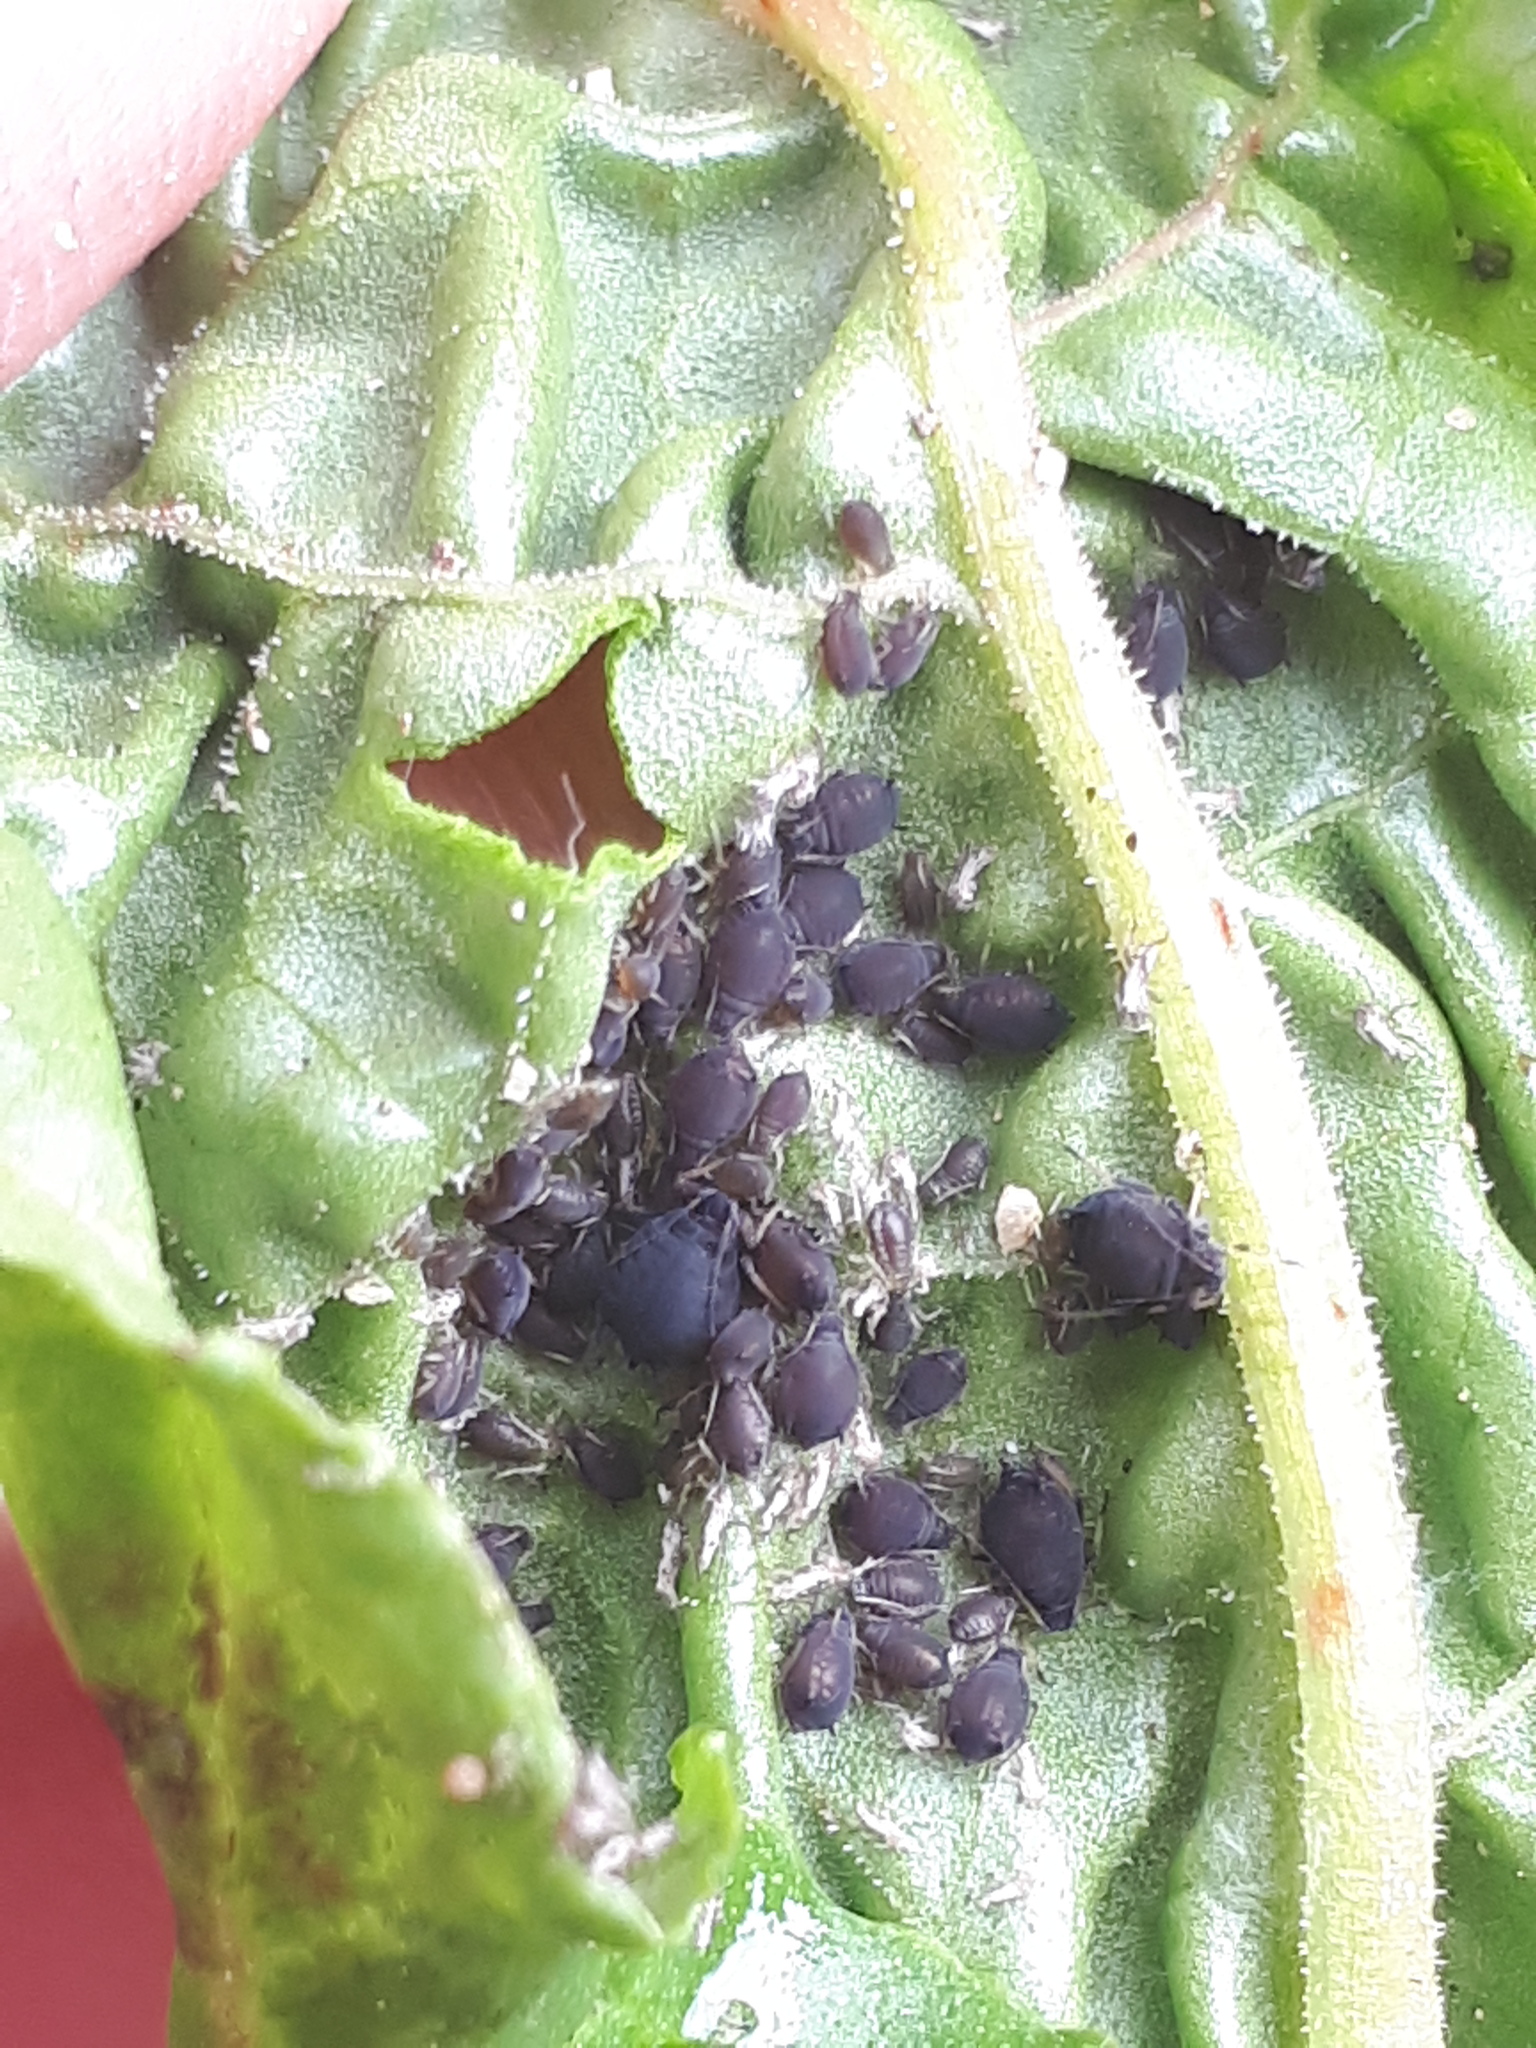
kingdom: Animalia
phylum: Arthropoda
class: Insecta
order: Hemiptera
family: Aphididae
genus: Aphis
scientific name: Aphis rumicis
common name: Aphid
